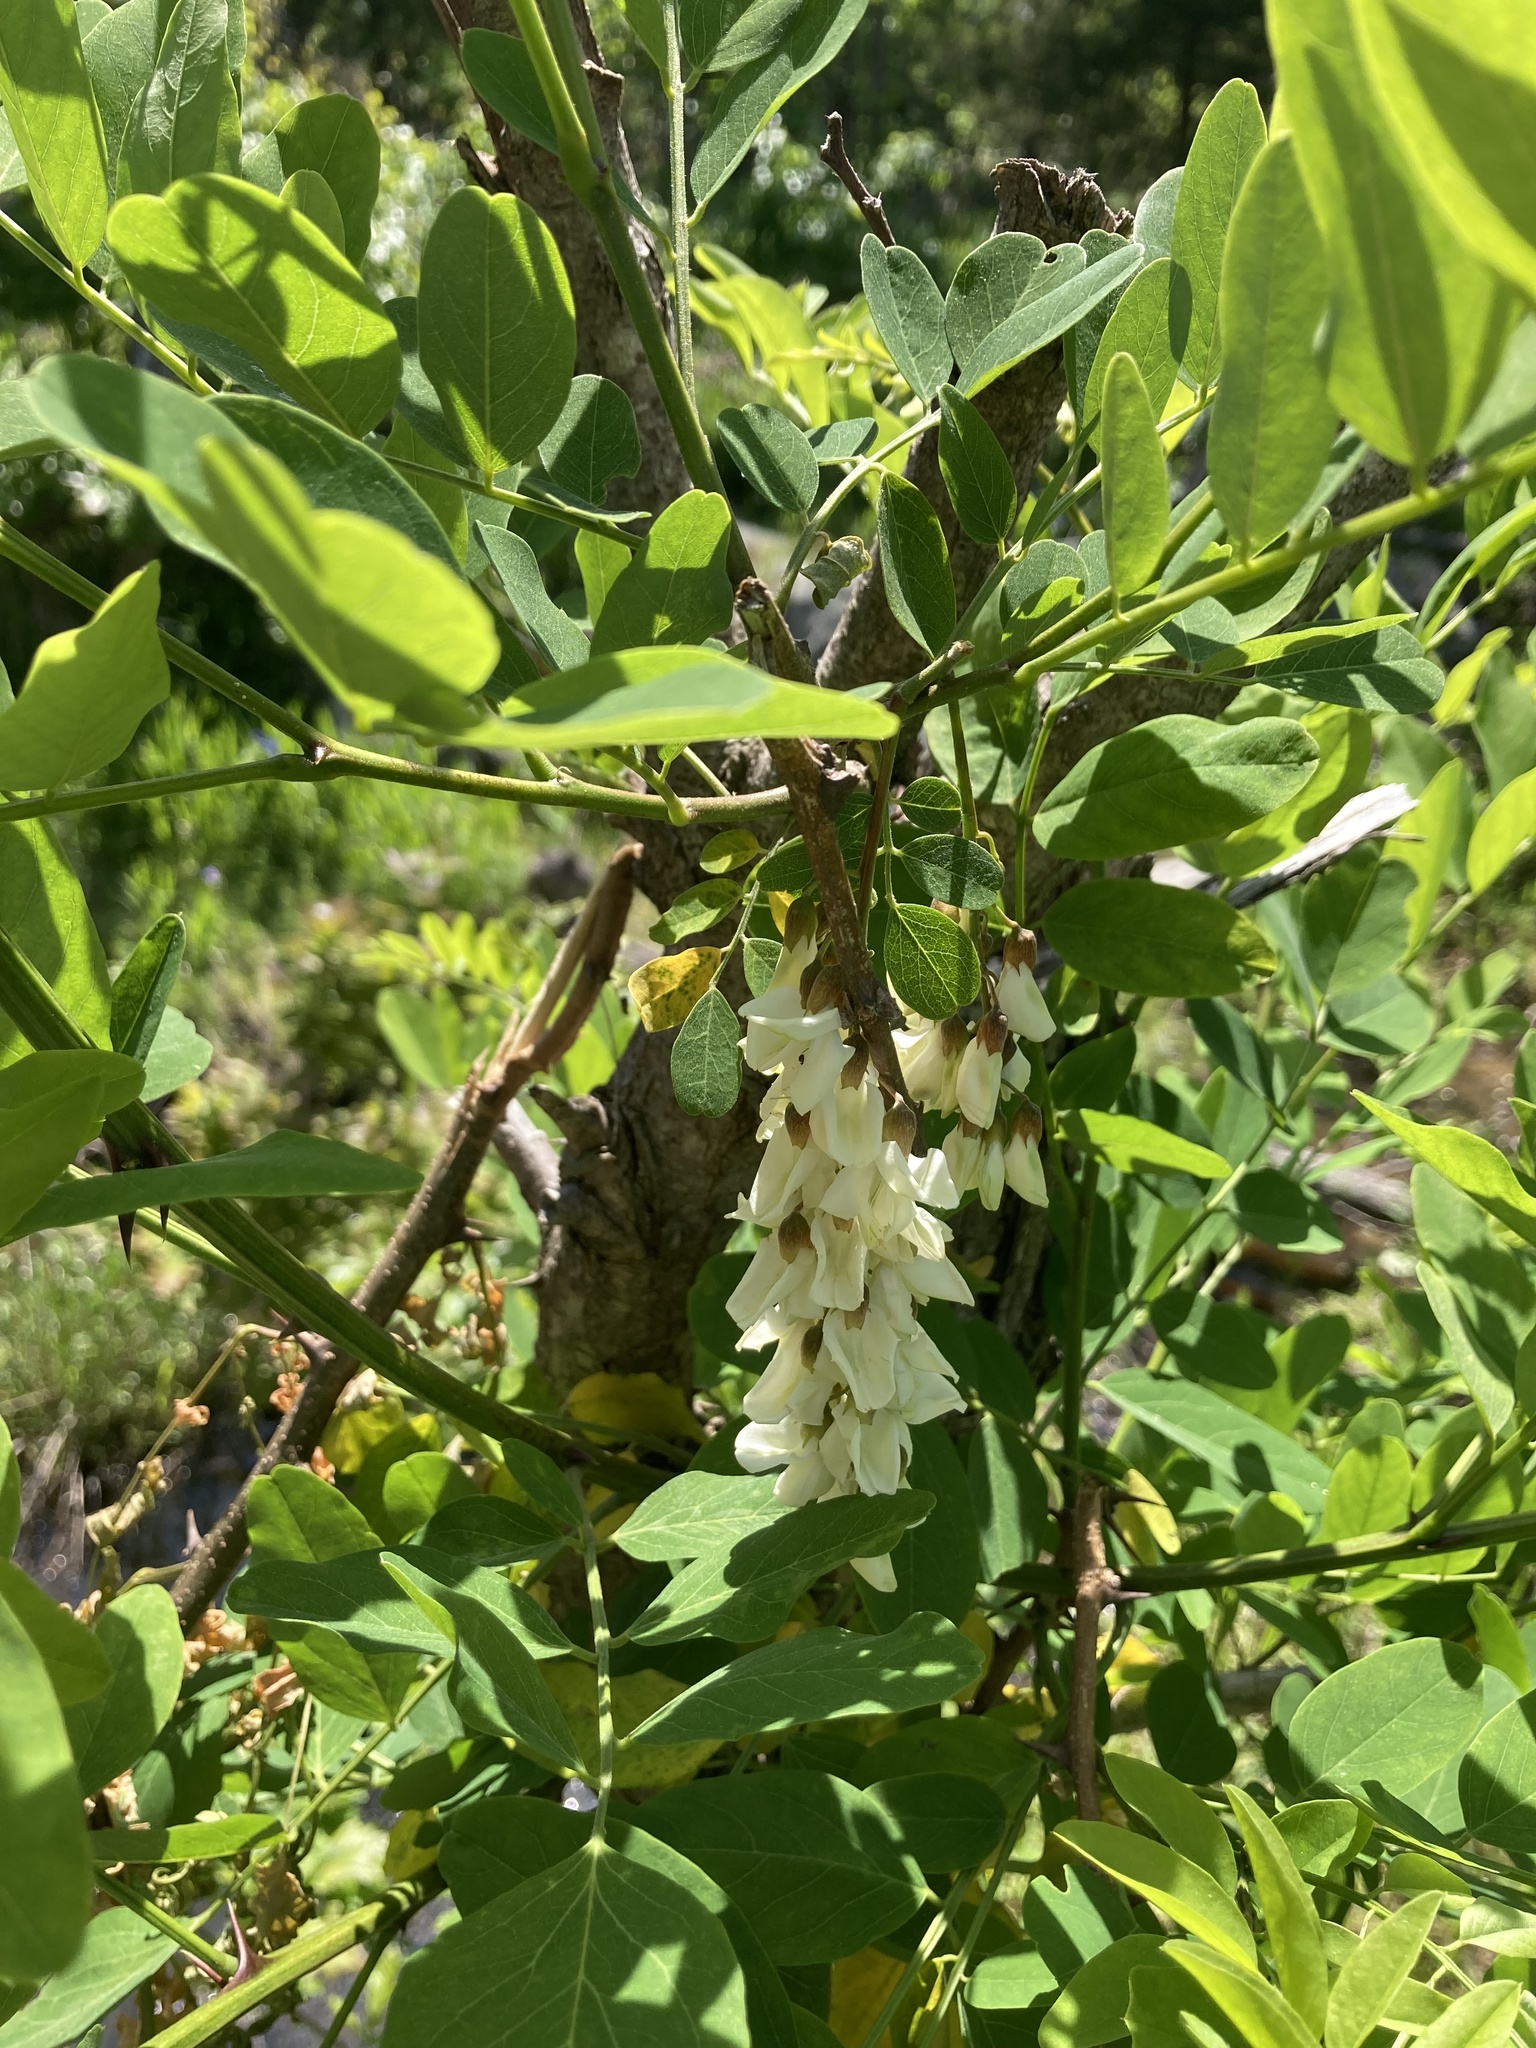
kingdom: Plantae
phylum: Tracheophyta
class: Magnoliopsida
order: Fabales
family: Fabaceae
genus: Robinia
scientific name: Robinia pseudoacacia
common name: Black locust
